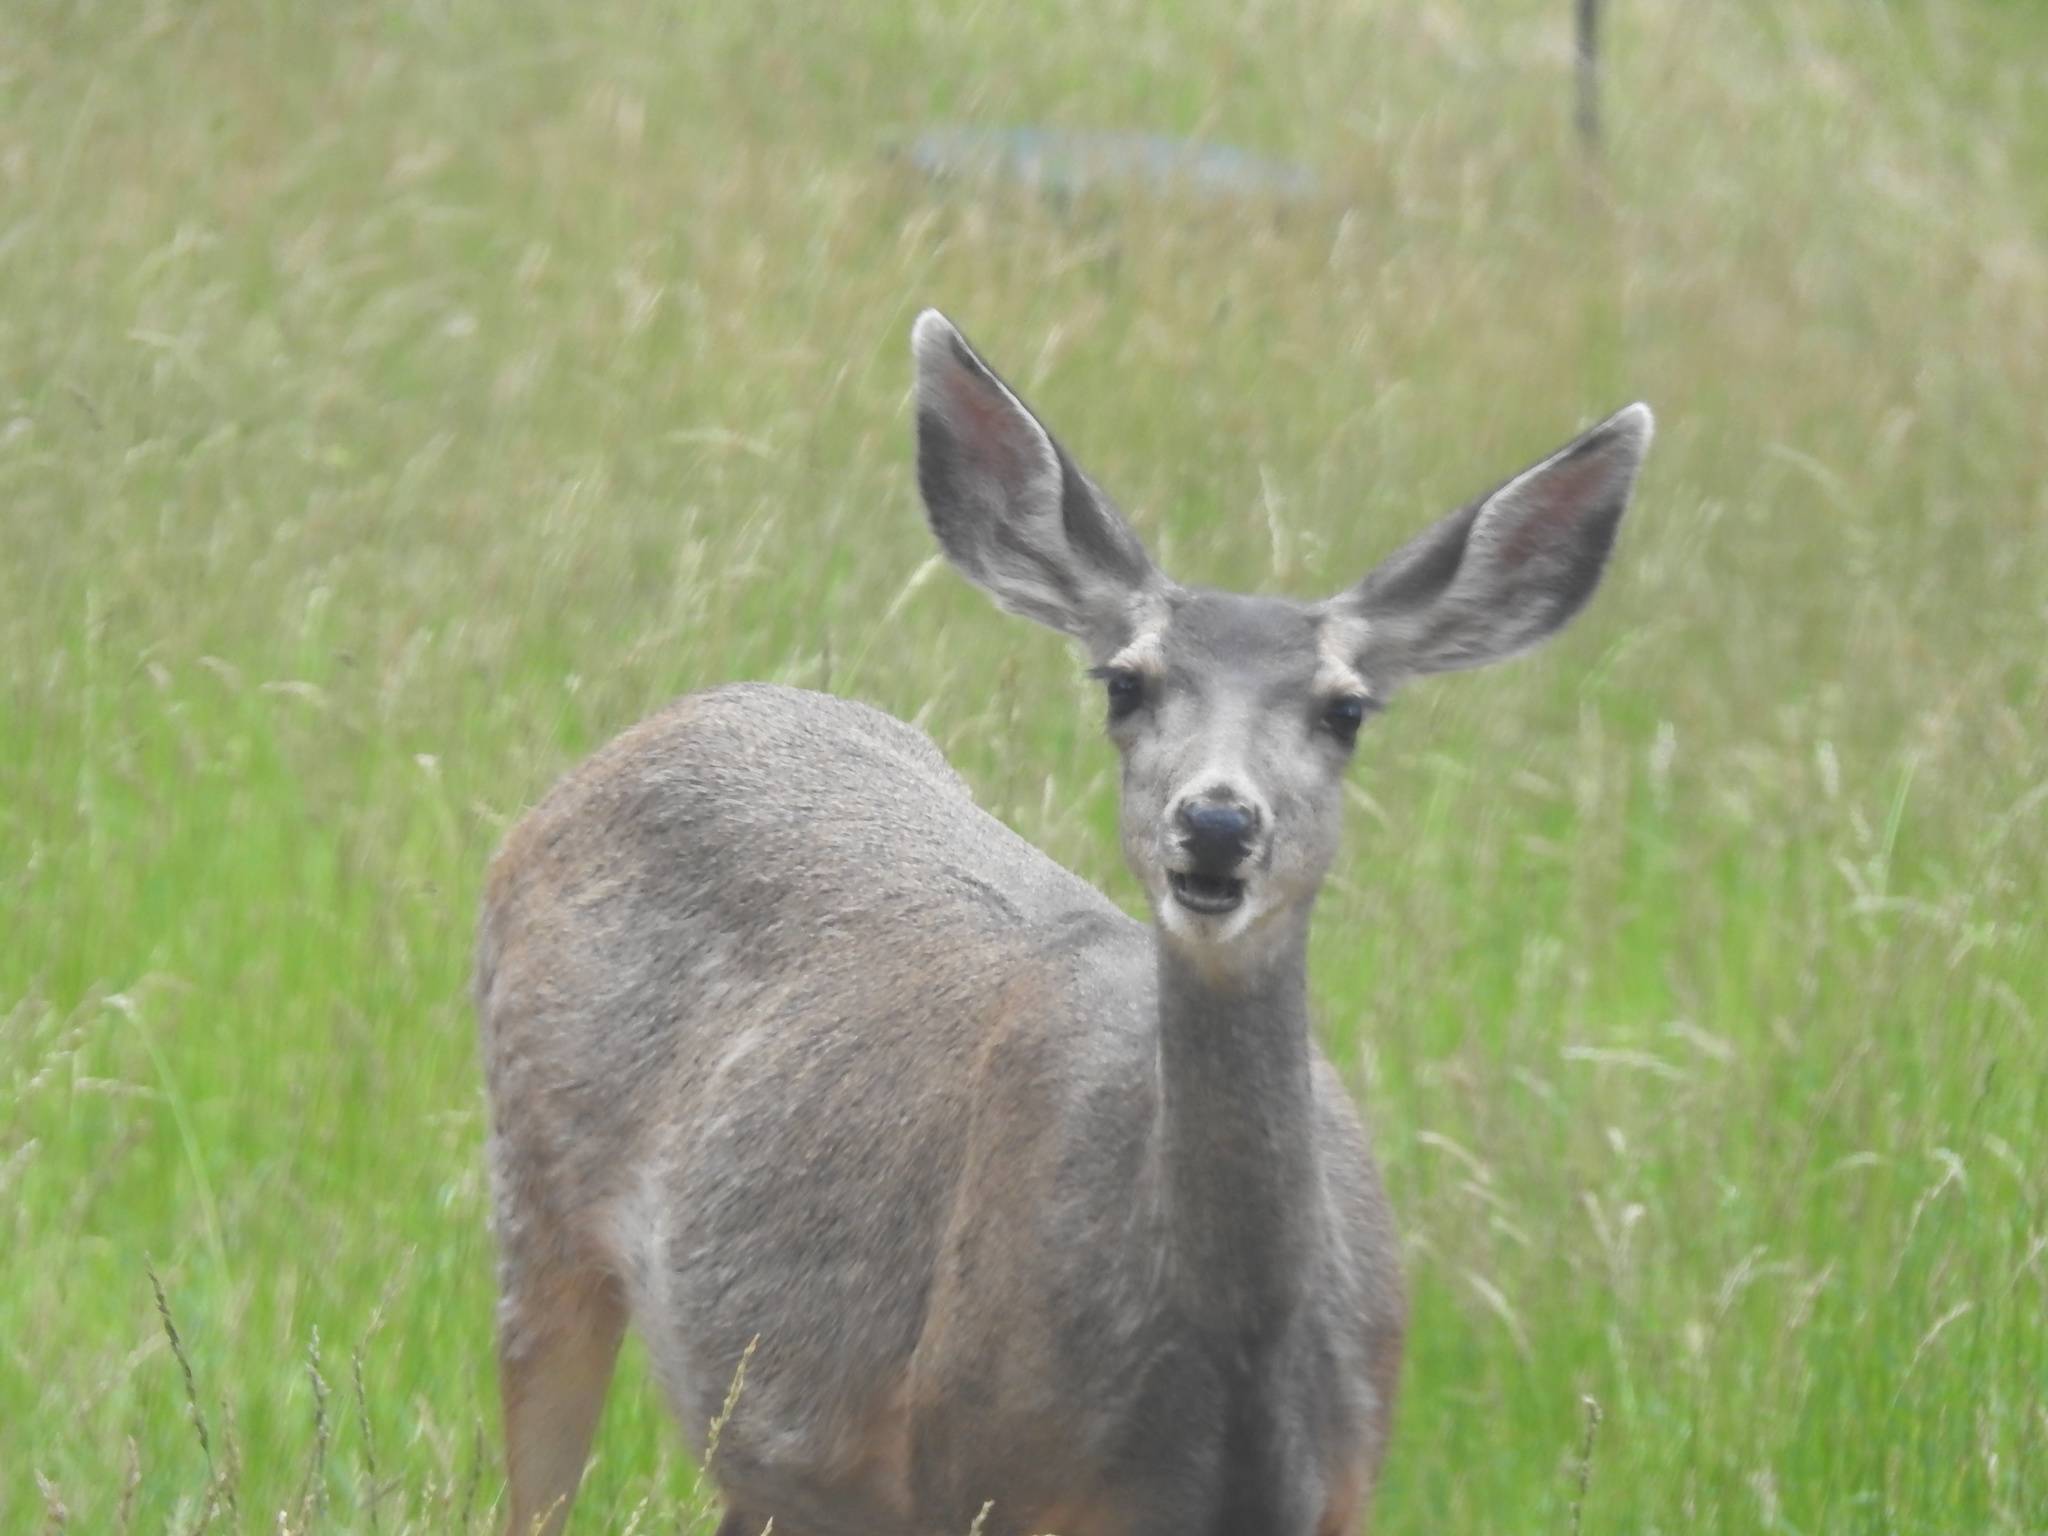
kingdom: Animalia
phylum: Chordata
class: Mammalia
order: Artiodactyla
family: Cervidae
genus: Odocoileus
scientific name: Odocoileus hemionus
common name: Mule deer
